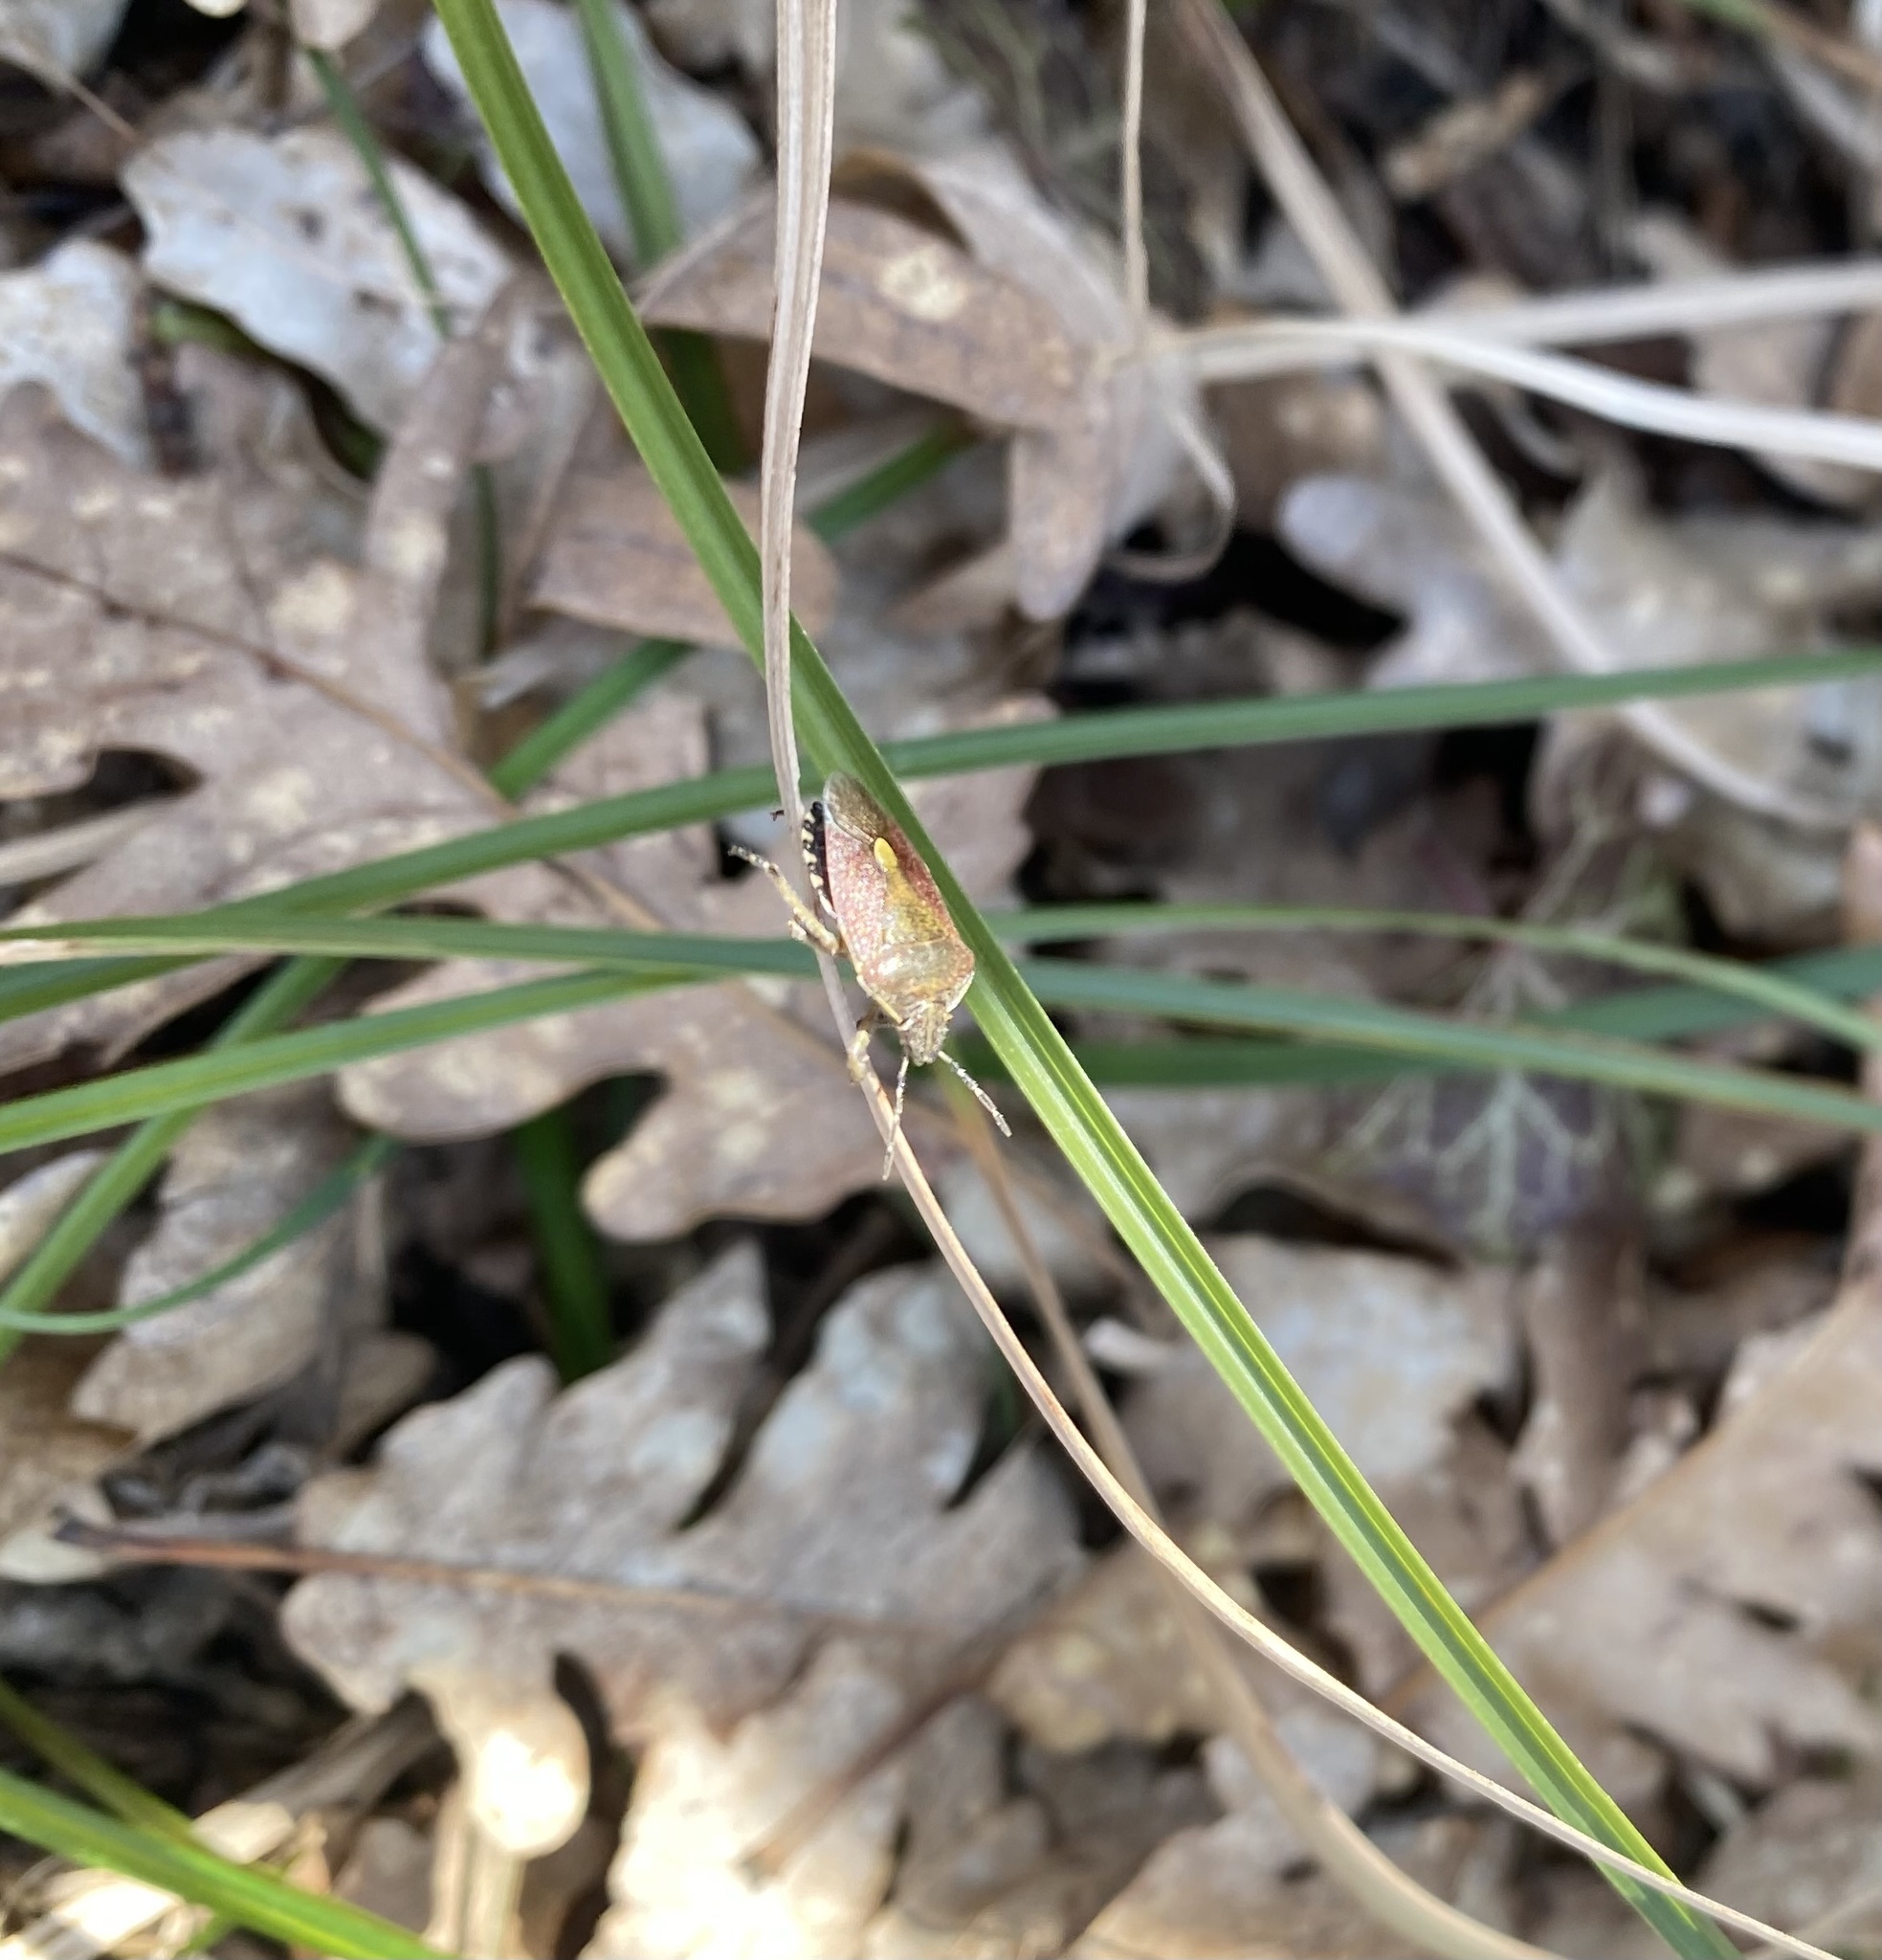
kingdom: Animalia
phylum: Arthropoda
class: Insecta
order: Hemiptera
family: Pentatomidae
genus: Dolycoris
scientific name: Dolycoris baccarum
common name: Sloe bug
